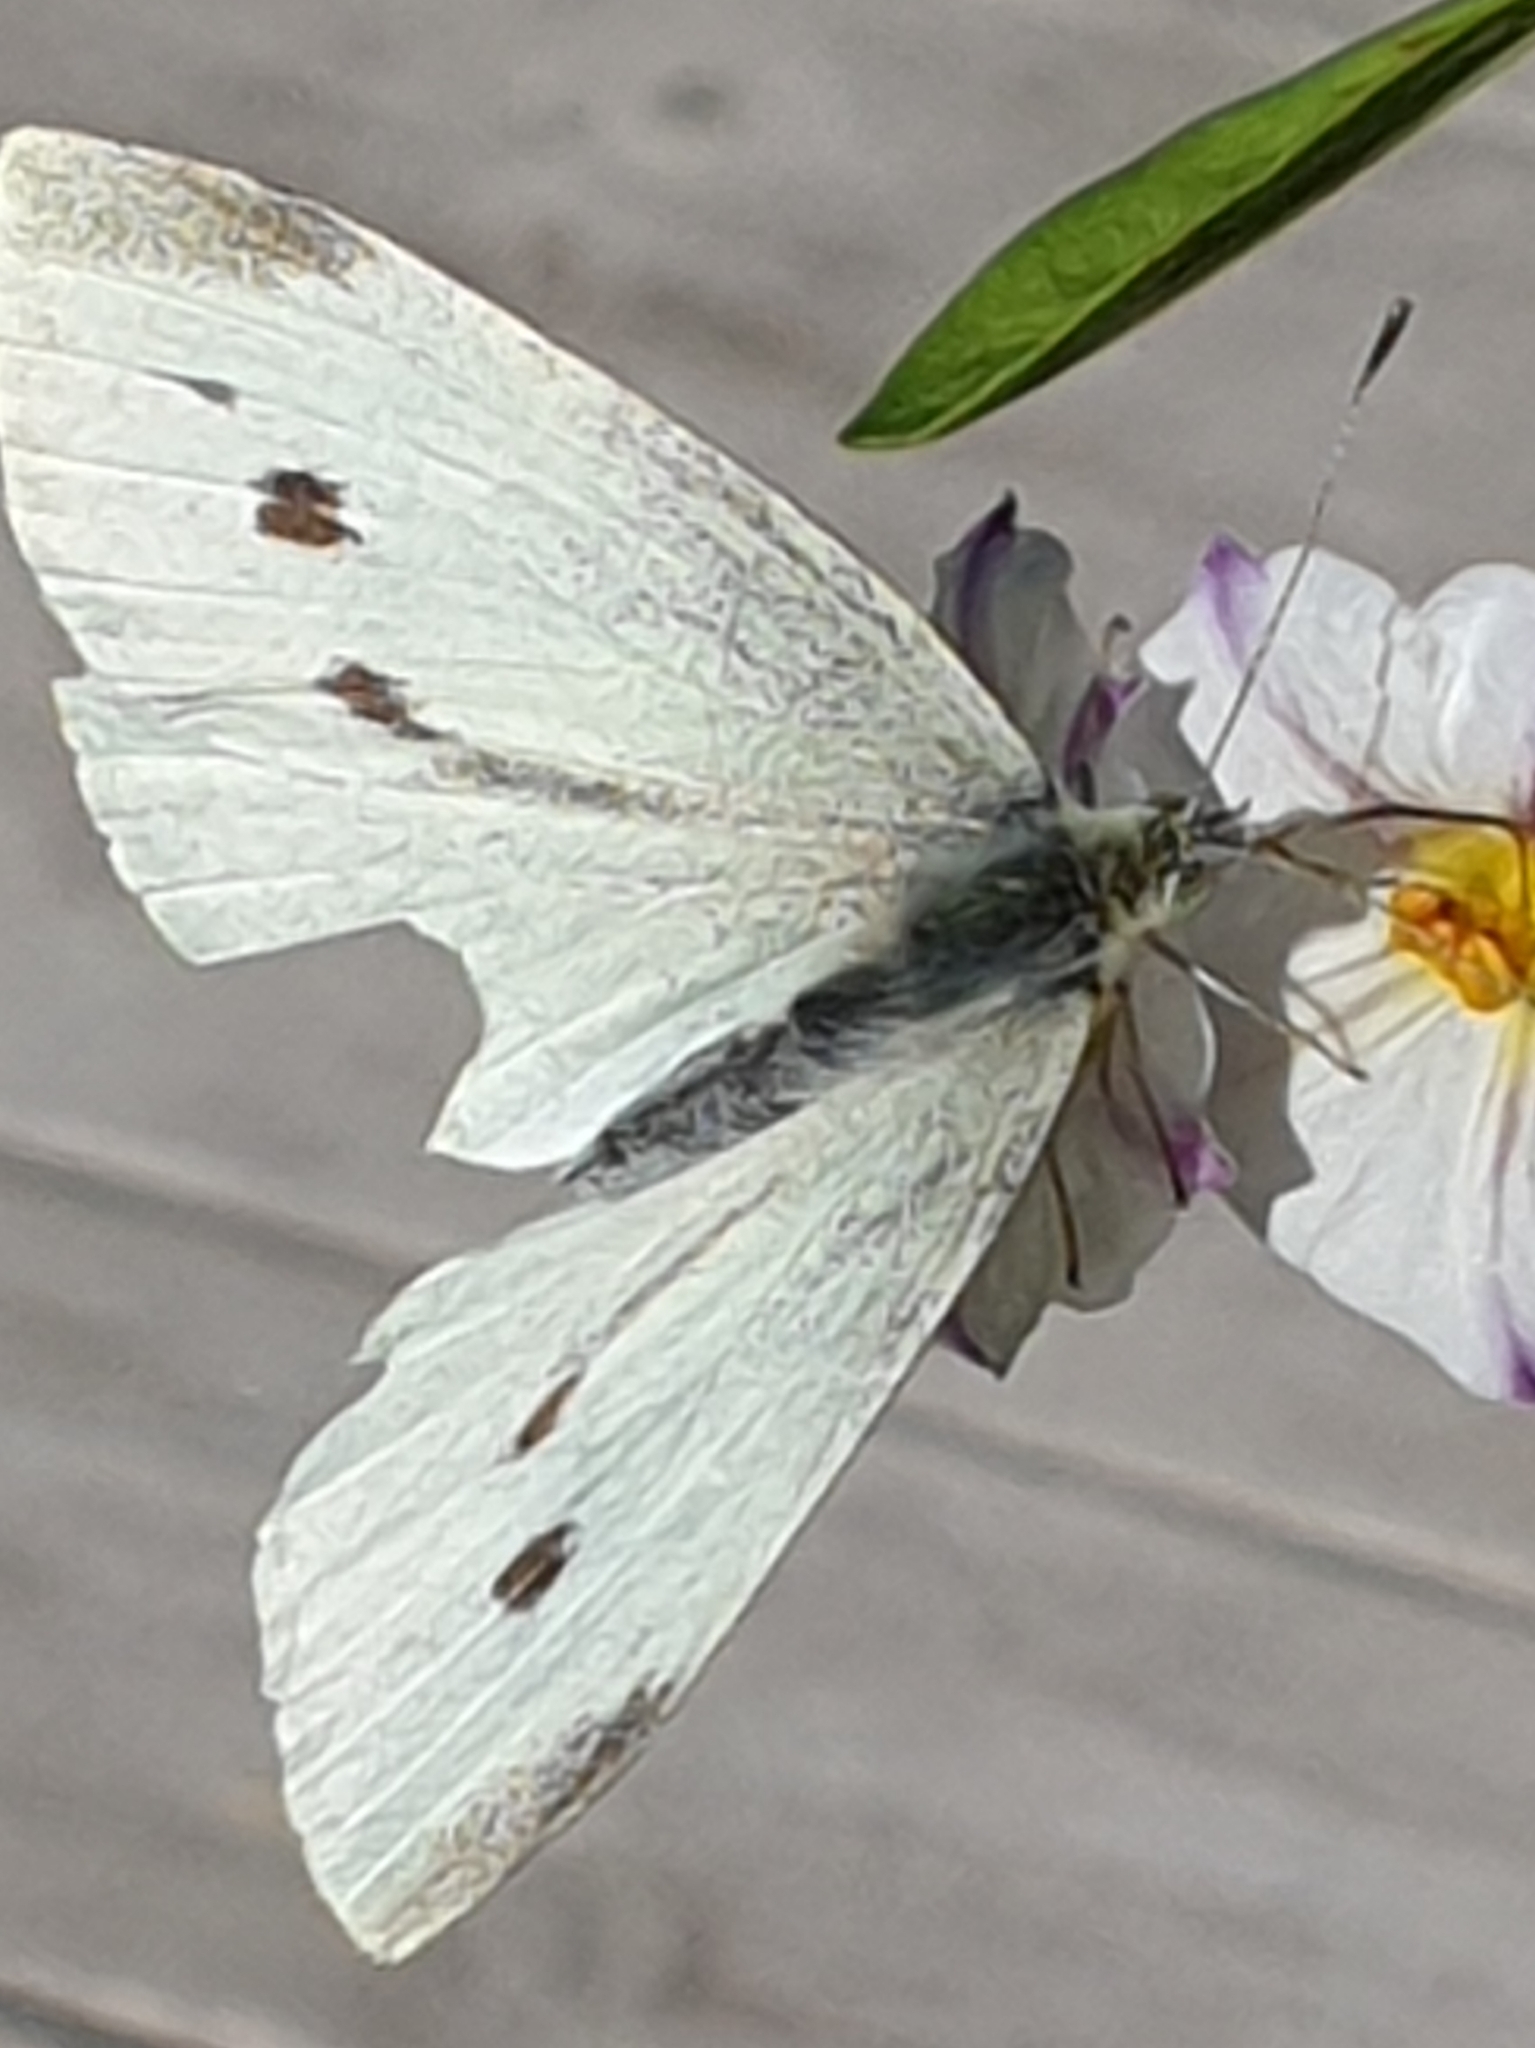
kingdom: Animalia
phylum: Arthropoda
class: Insecta
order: Lepidoptera
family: Pieridae
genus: Pieris
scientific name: Pieris rapae
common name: Small white
